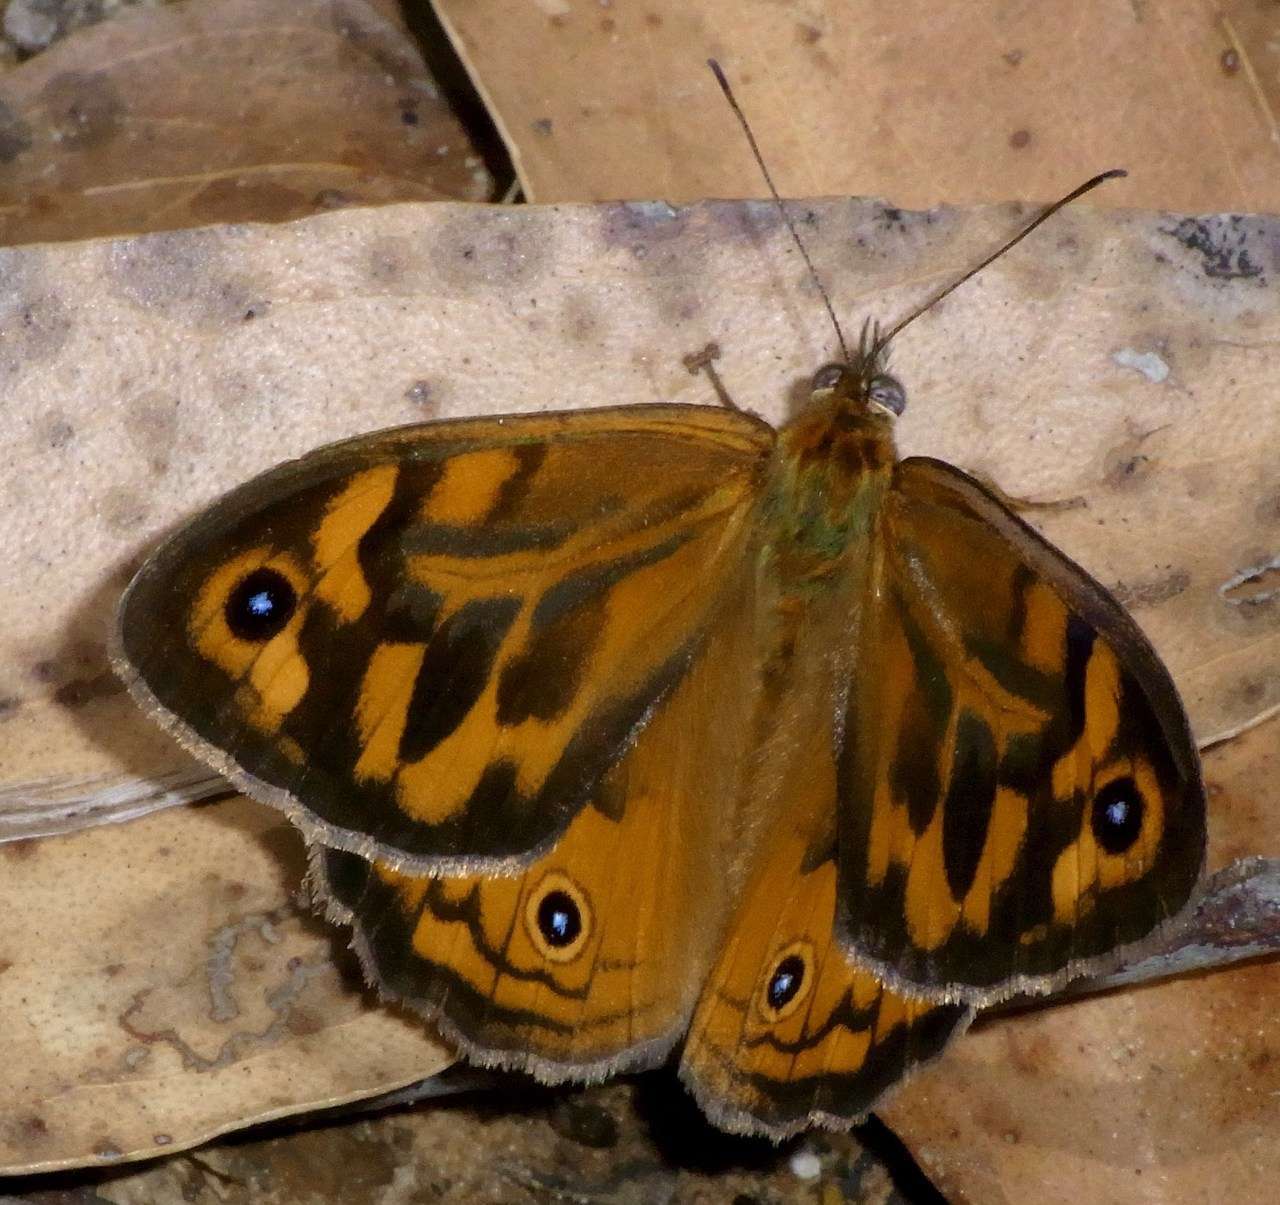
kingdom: Animalia
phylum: Arthropoda
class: Insecta
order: Lepidoptera
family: Nymphalidae
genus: Heteronympha
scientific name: Heteronympha merope
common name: Common brown
